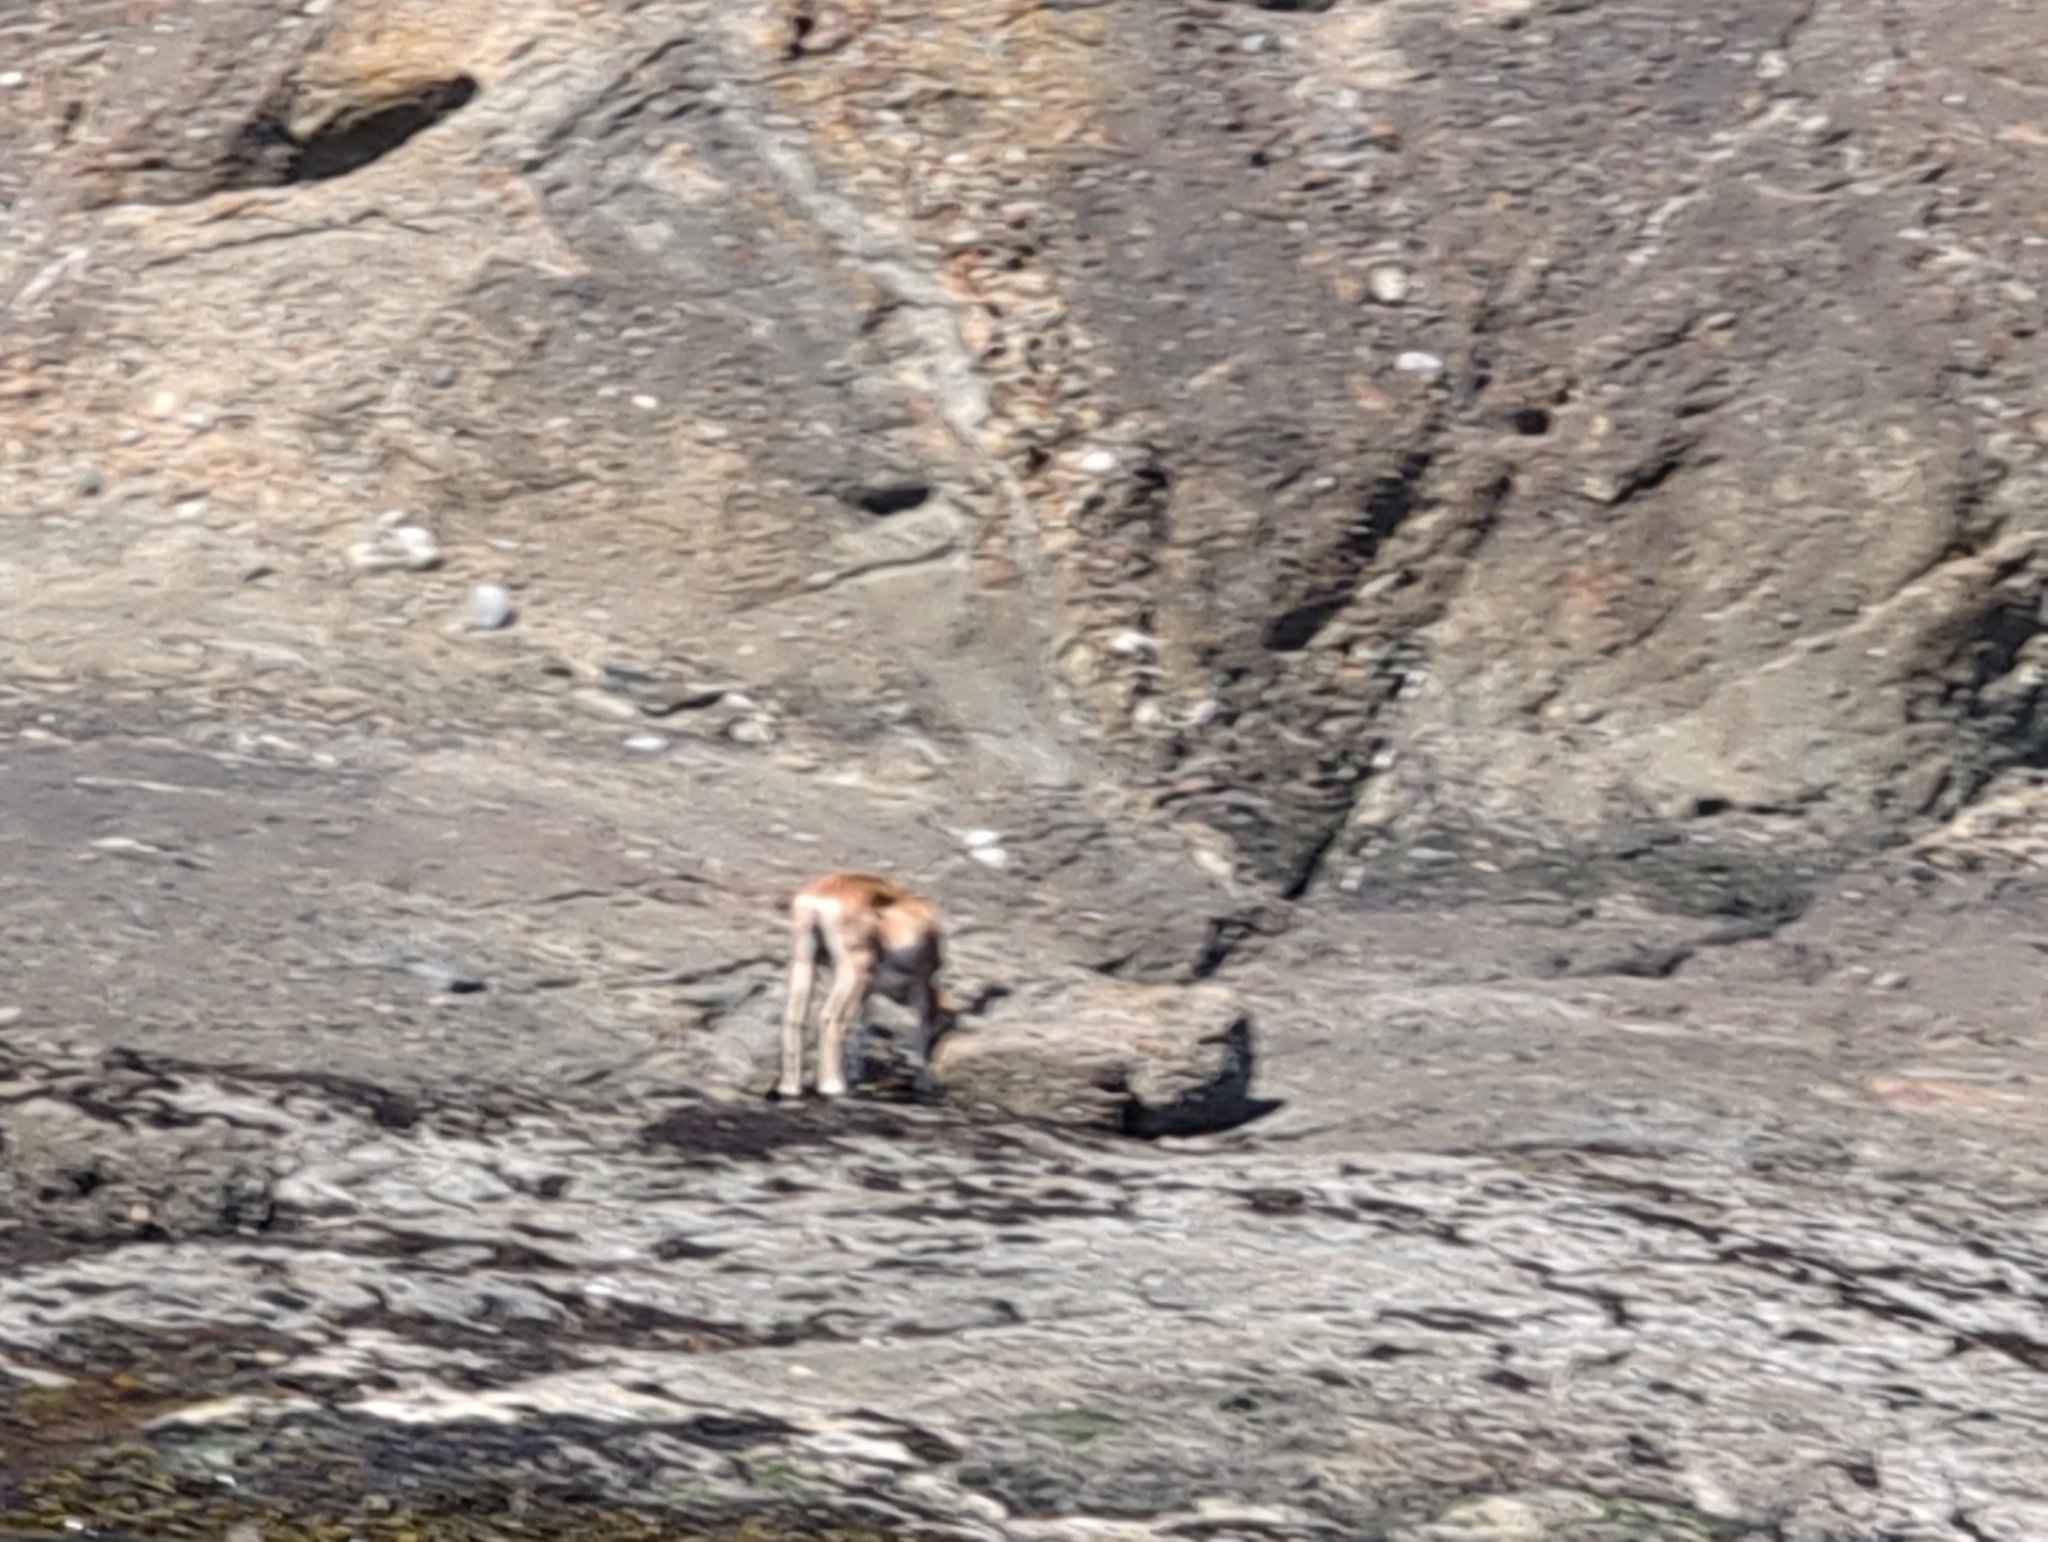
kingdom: Animalia
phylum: Chordata
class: Mammalia
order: Artiodactyla
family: Bovidae
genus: Ovis
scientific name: Ovis aries
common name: Domestic sheep
